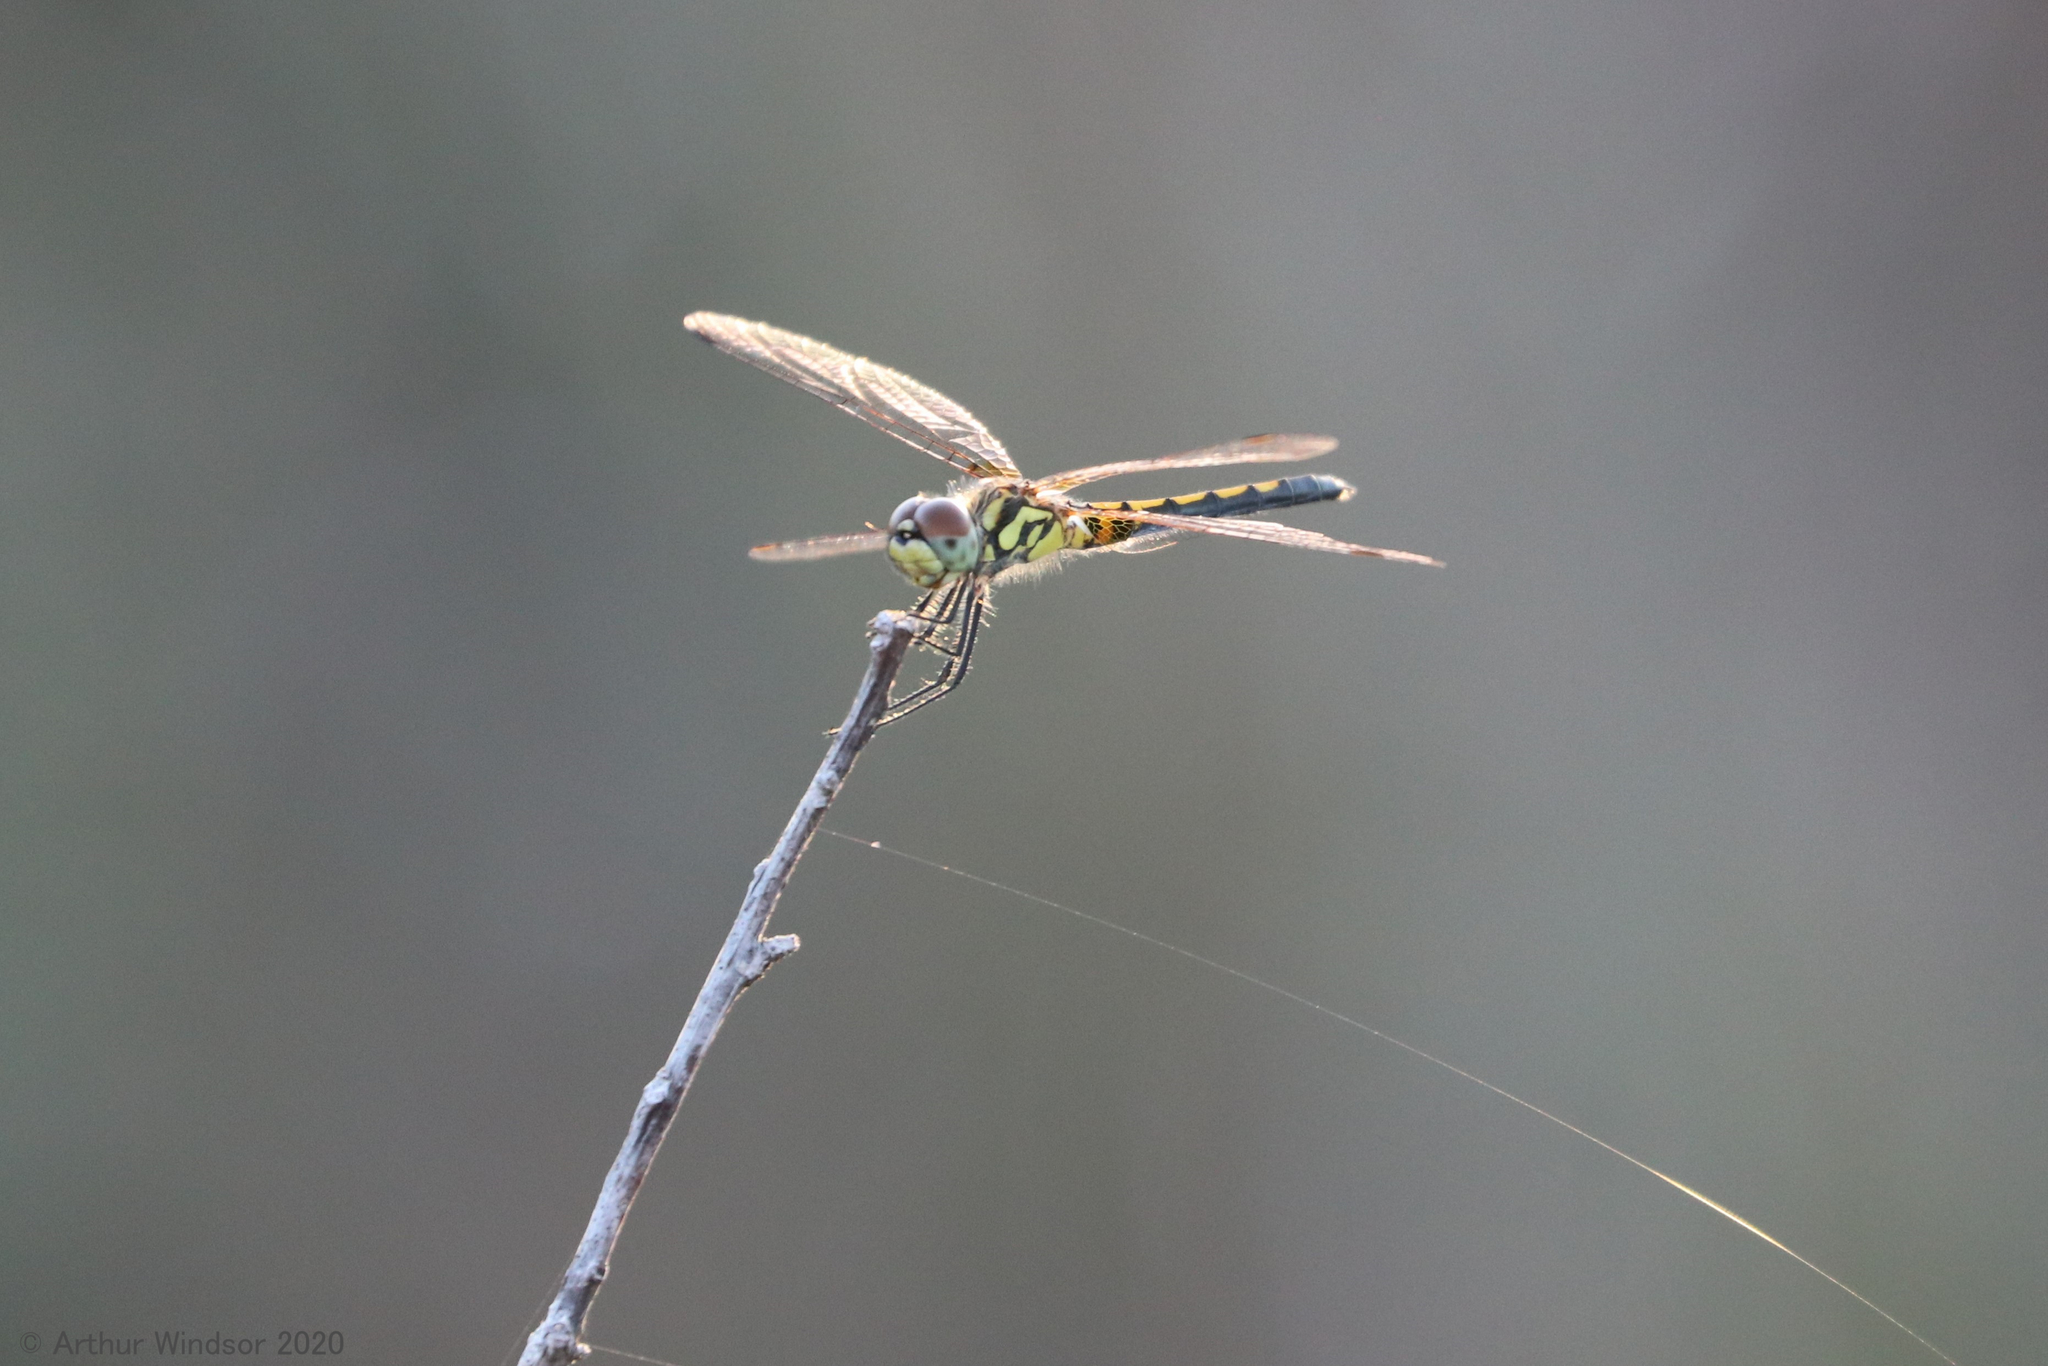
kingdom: Animalia
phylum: Arthropoda
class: Insecta
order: Odonata
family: Libellulidae
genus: Celithemis
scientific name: Celithemis ornata
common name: Ornate pennant
